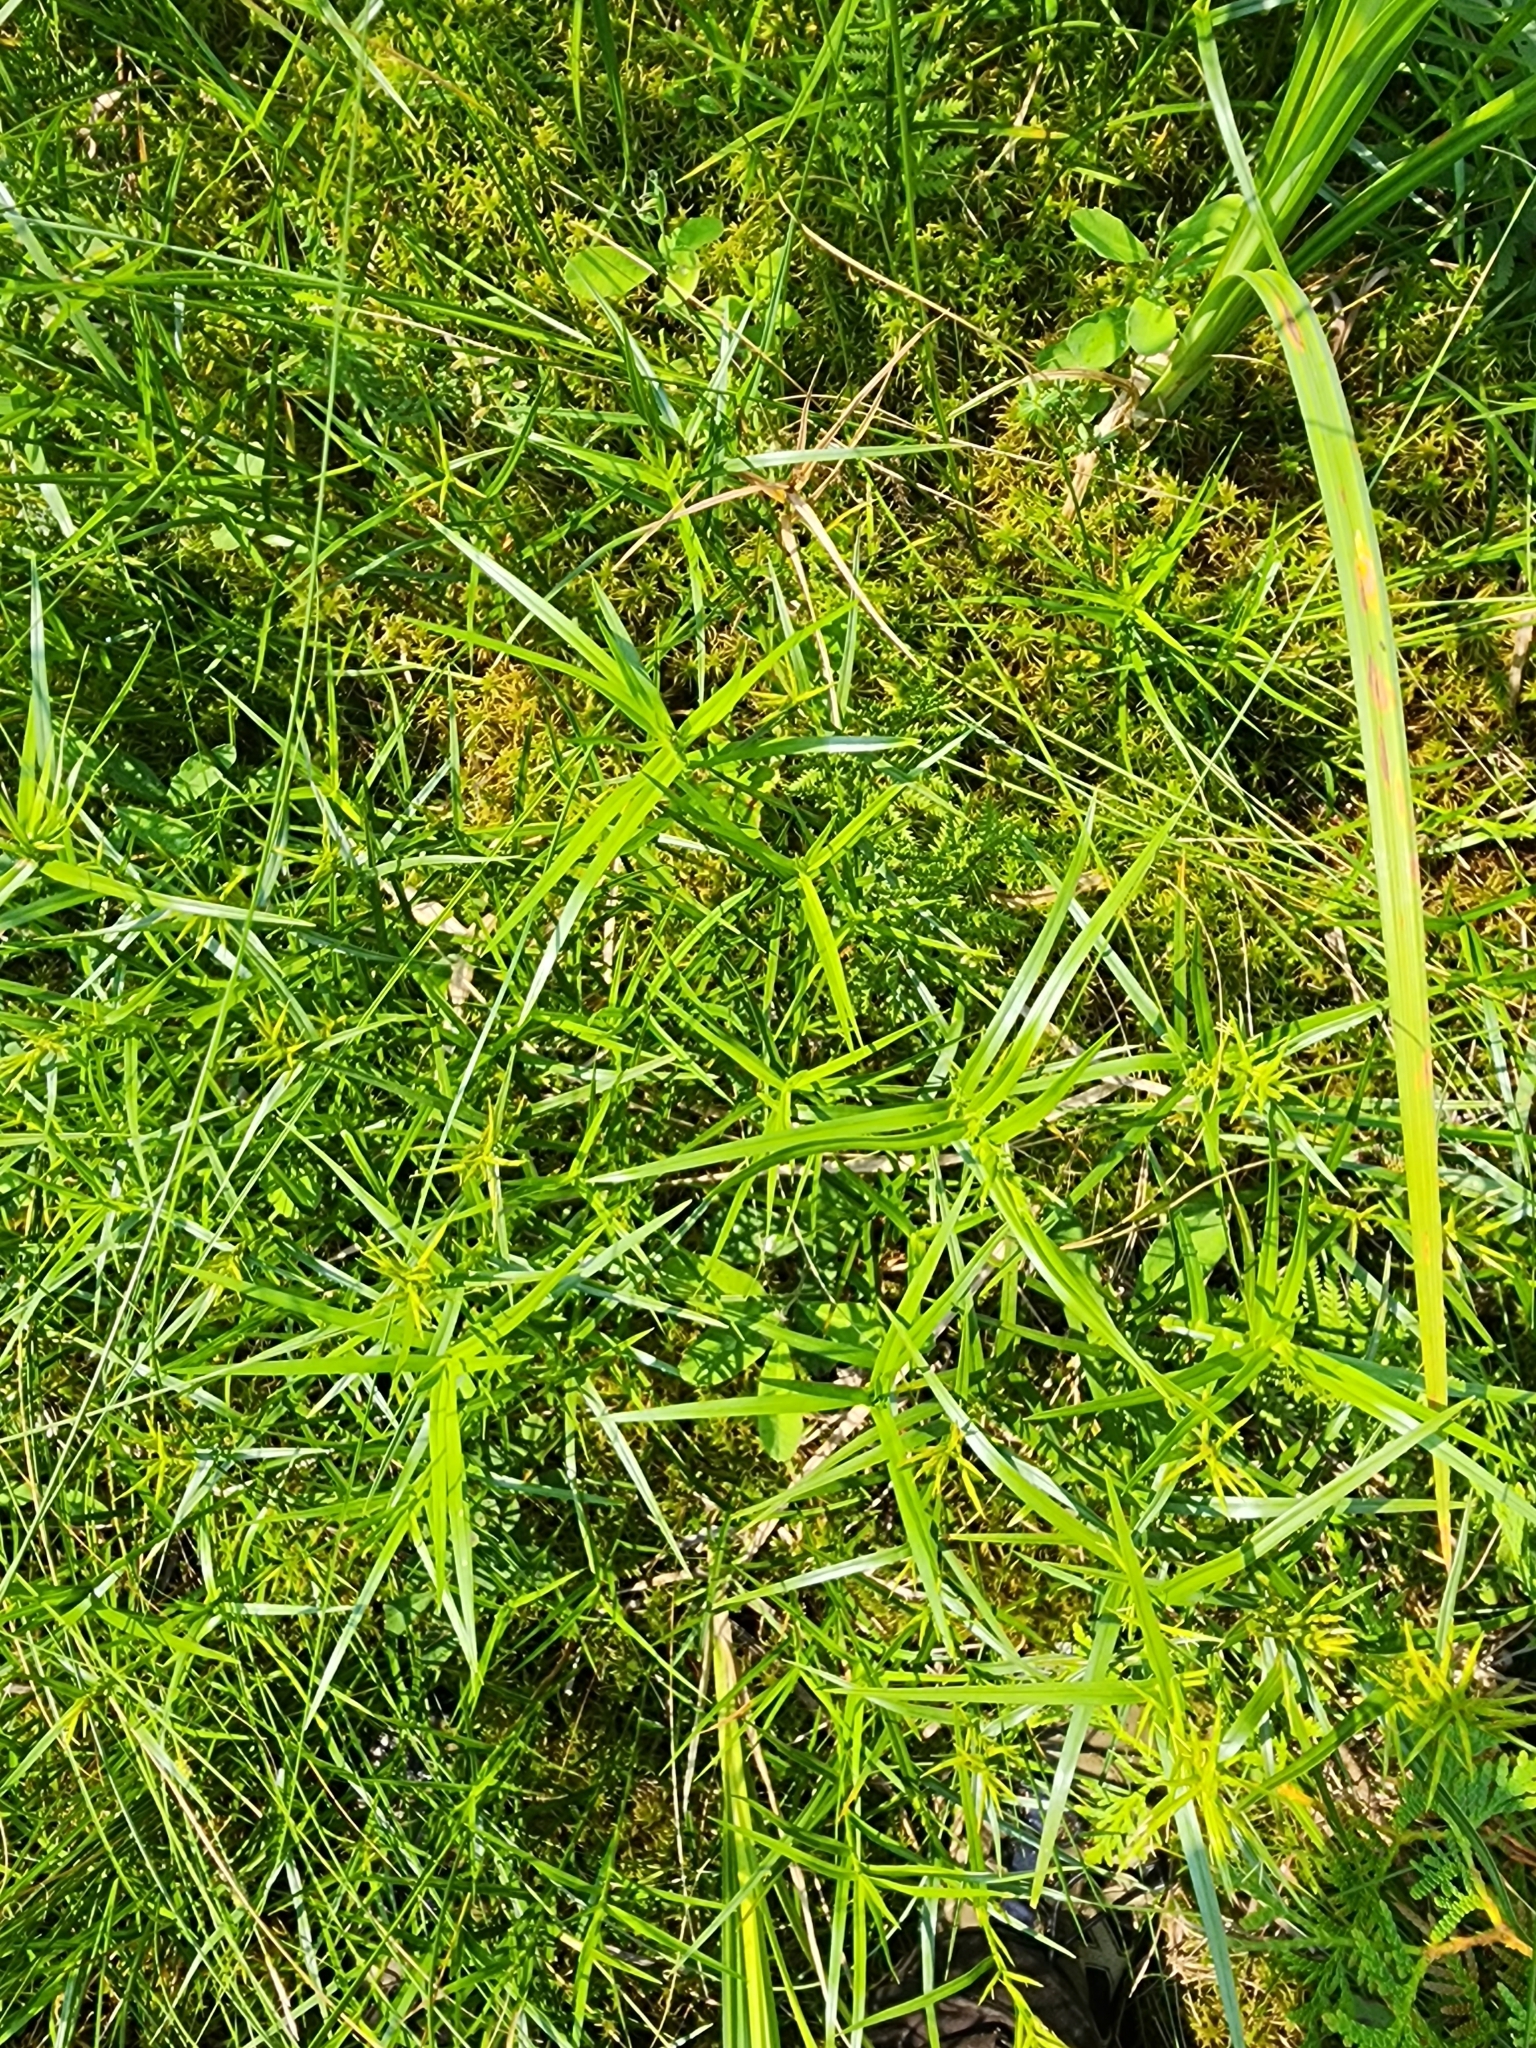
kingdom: Plantae
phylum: Tracheophyta
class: Liliopsida
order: Poales
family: Cyperaceae
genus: Dulichium
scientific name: Dulichium arundinaceum
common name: Three-way sedge
